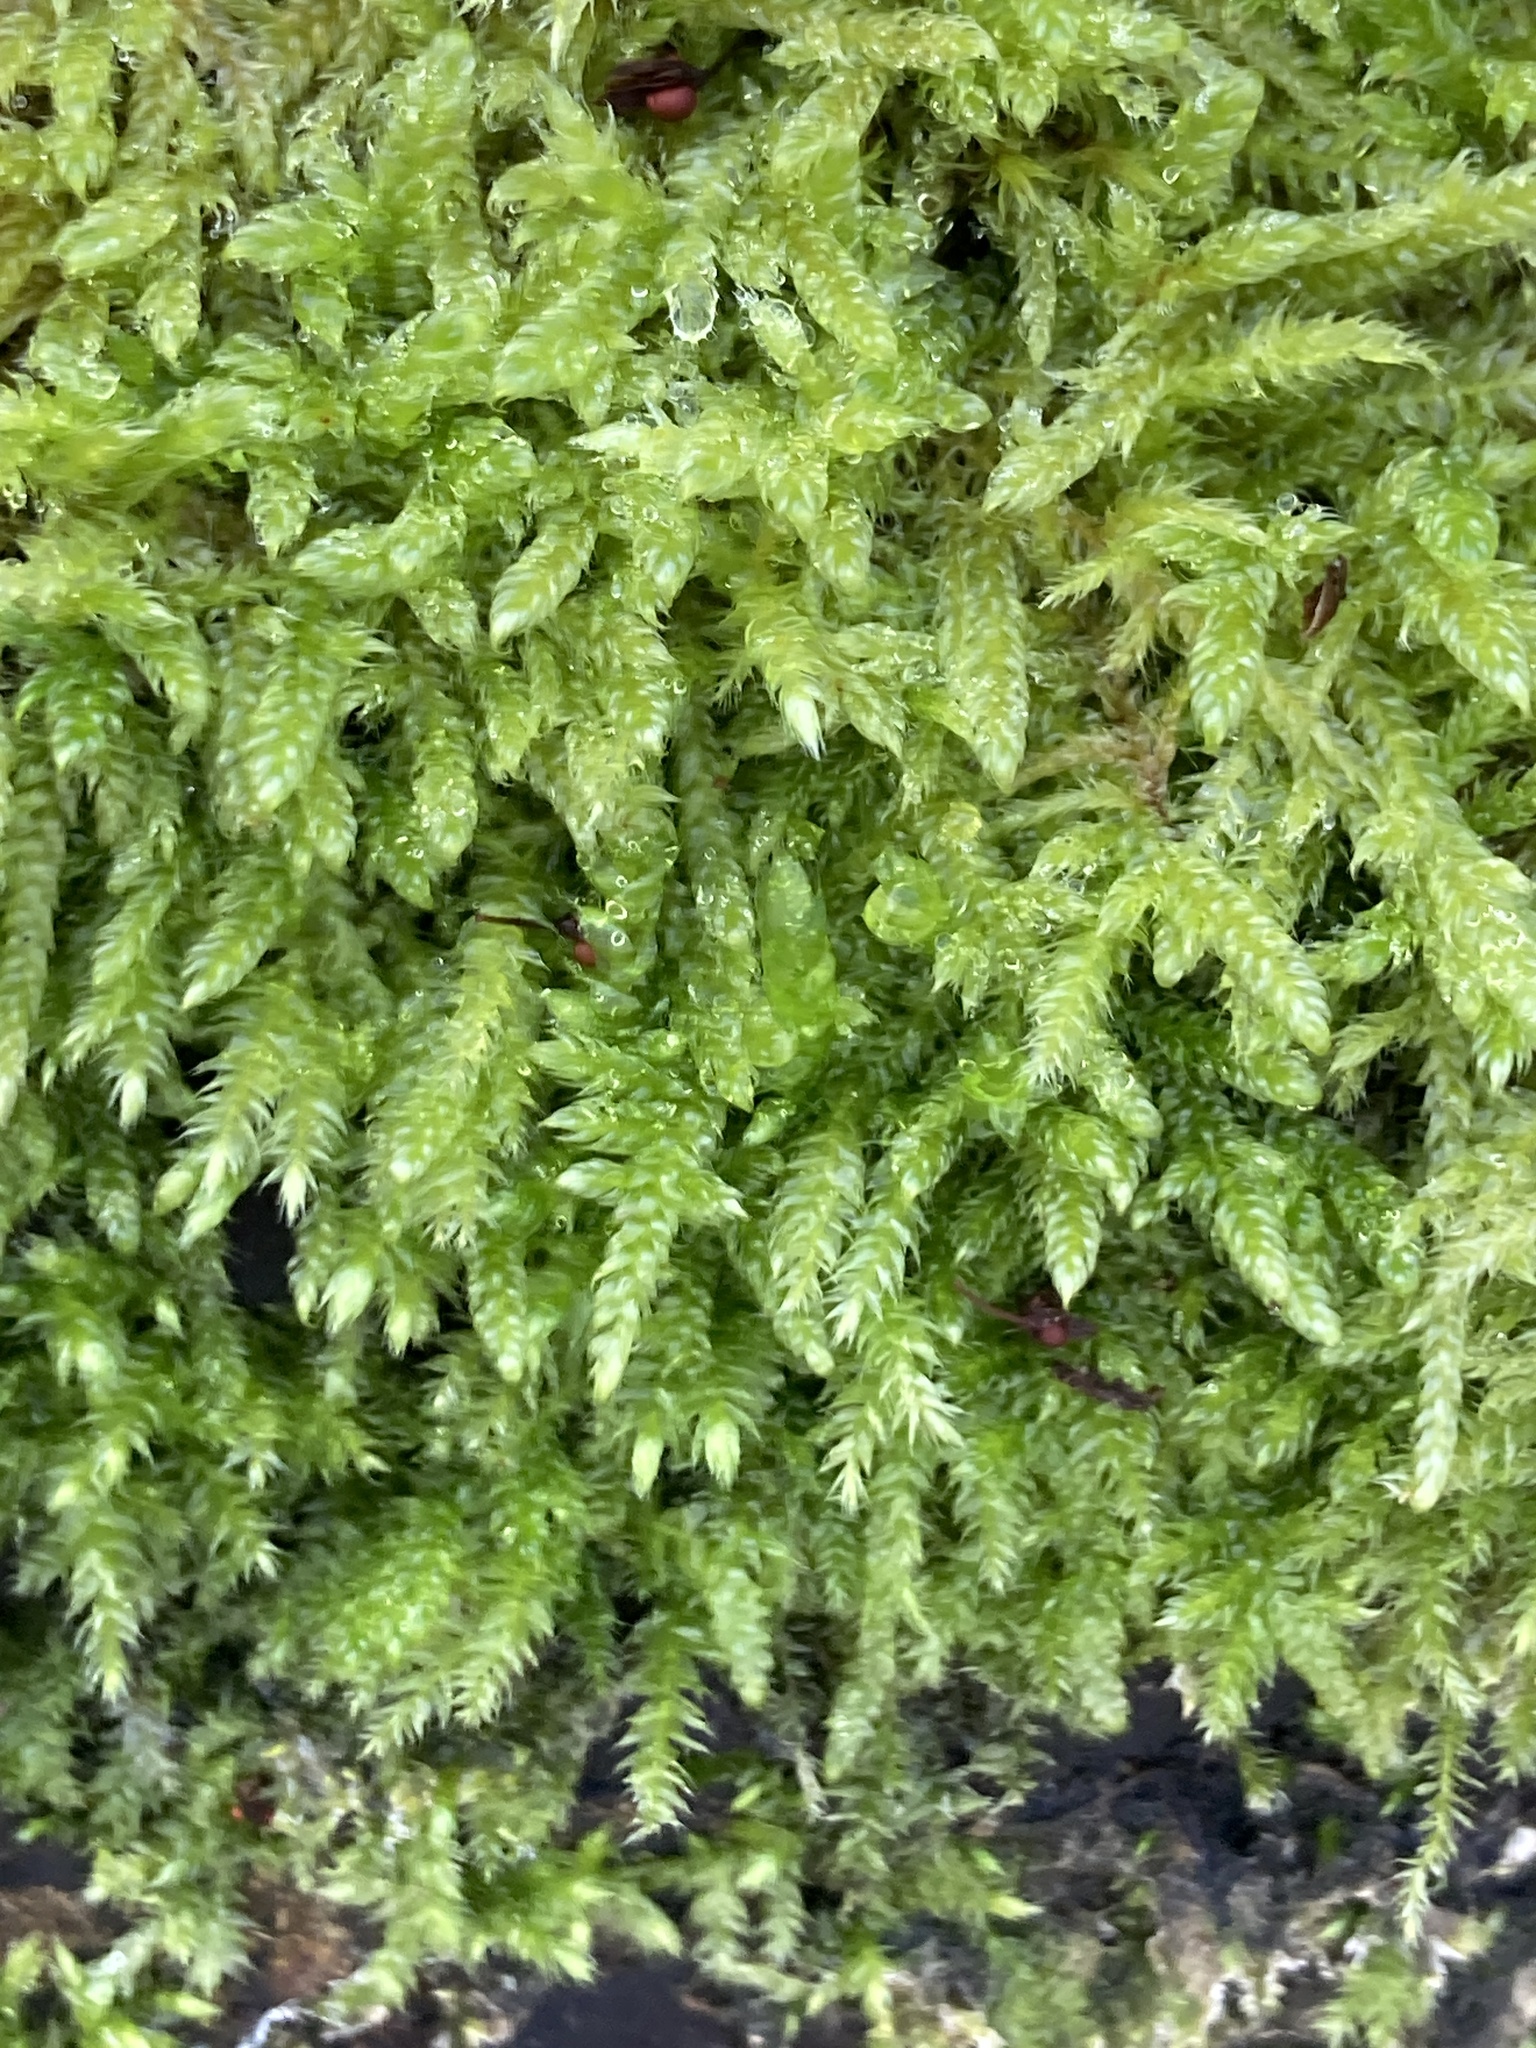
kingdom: Plantae
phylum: Bryophyta
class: Bryopsida
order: Hypnales
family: Hypnaceae
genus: Hypnum
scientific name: Hypnum cupressiforme
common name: Cypress-leaved plait-moss
